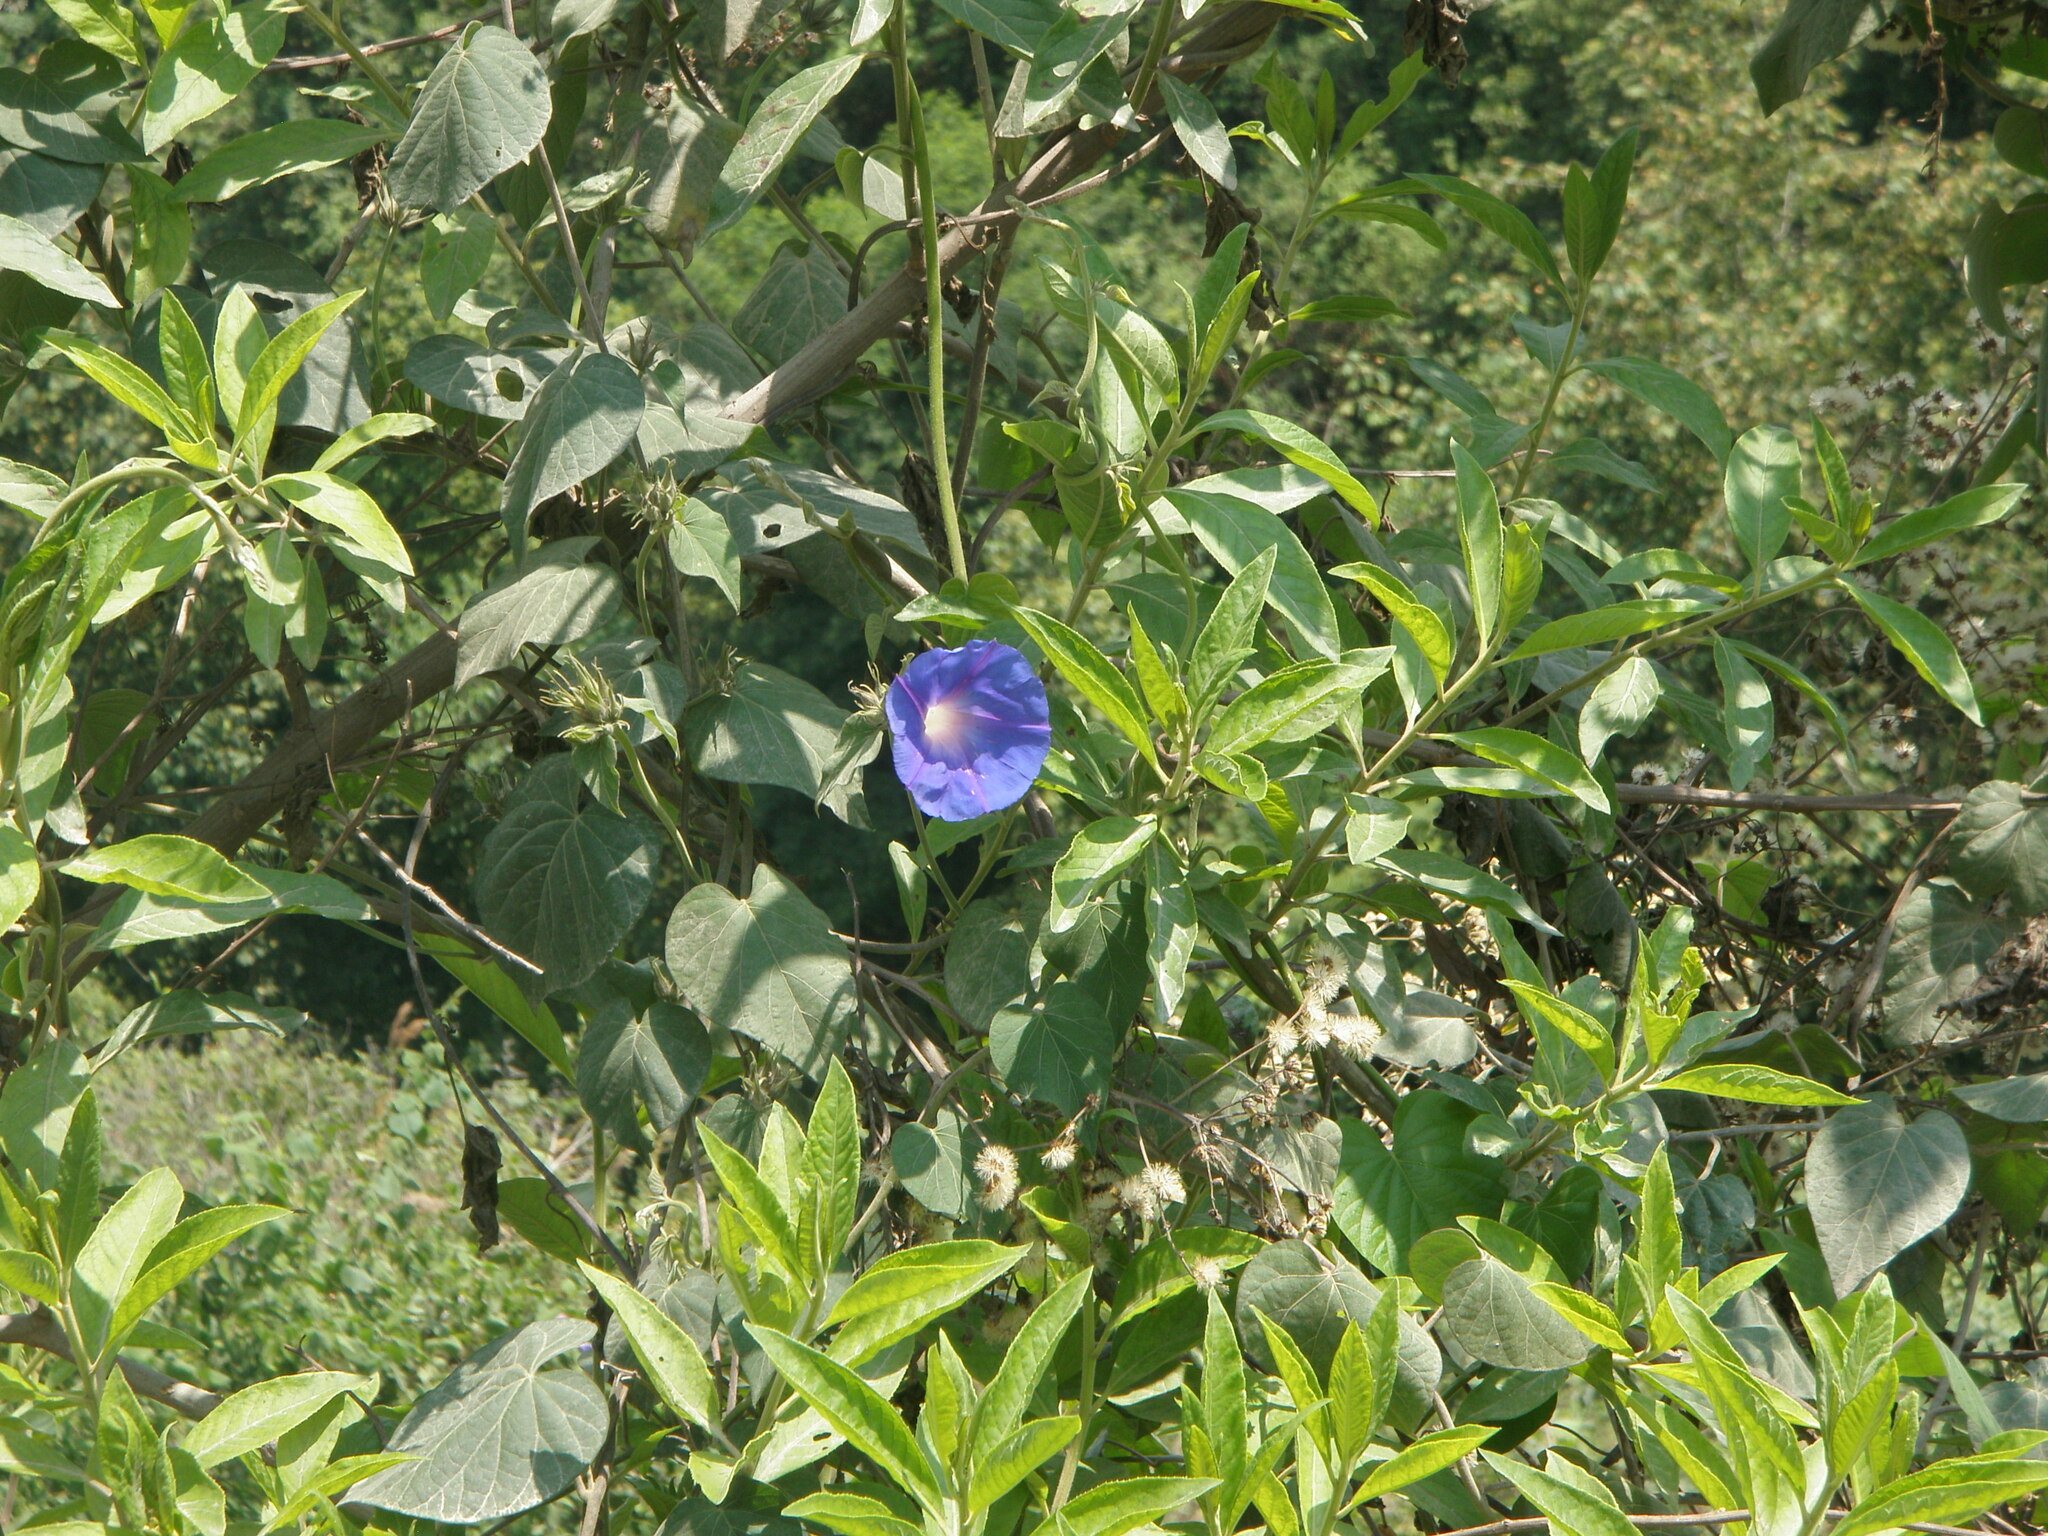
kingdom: Plantae
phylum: Tracheophyta
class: Magnoliopsida
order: Solanales
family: Convolvulaceae
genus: Ipomoea
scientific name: Ipomoea indica
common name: Blue dawnflower
